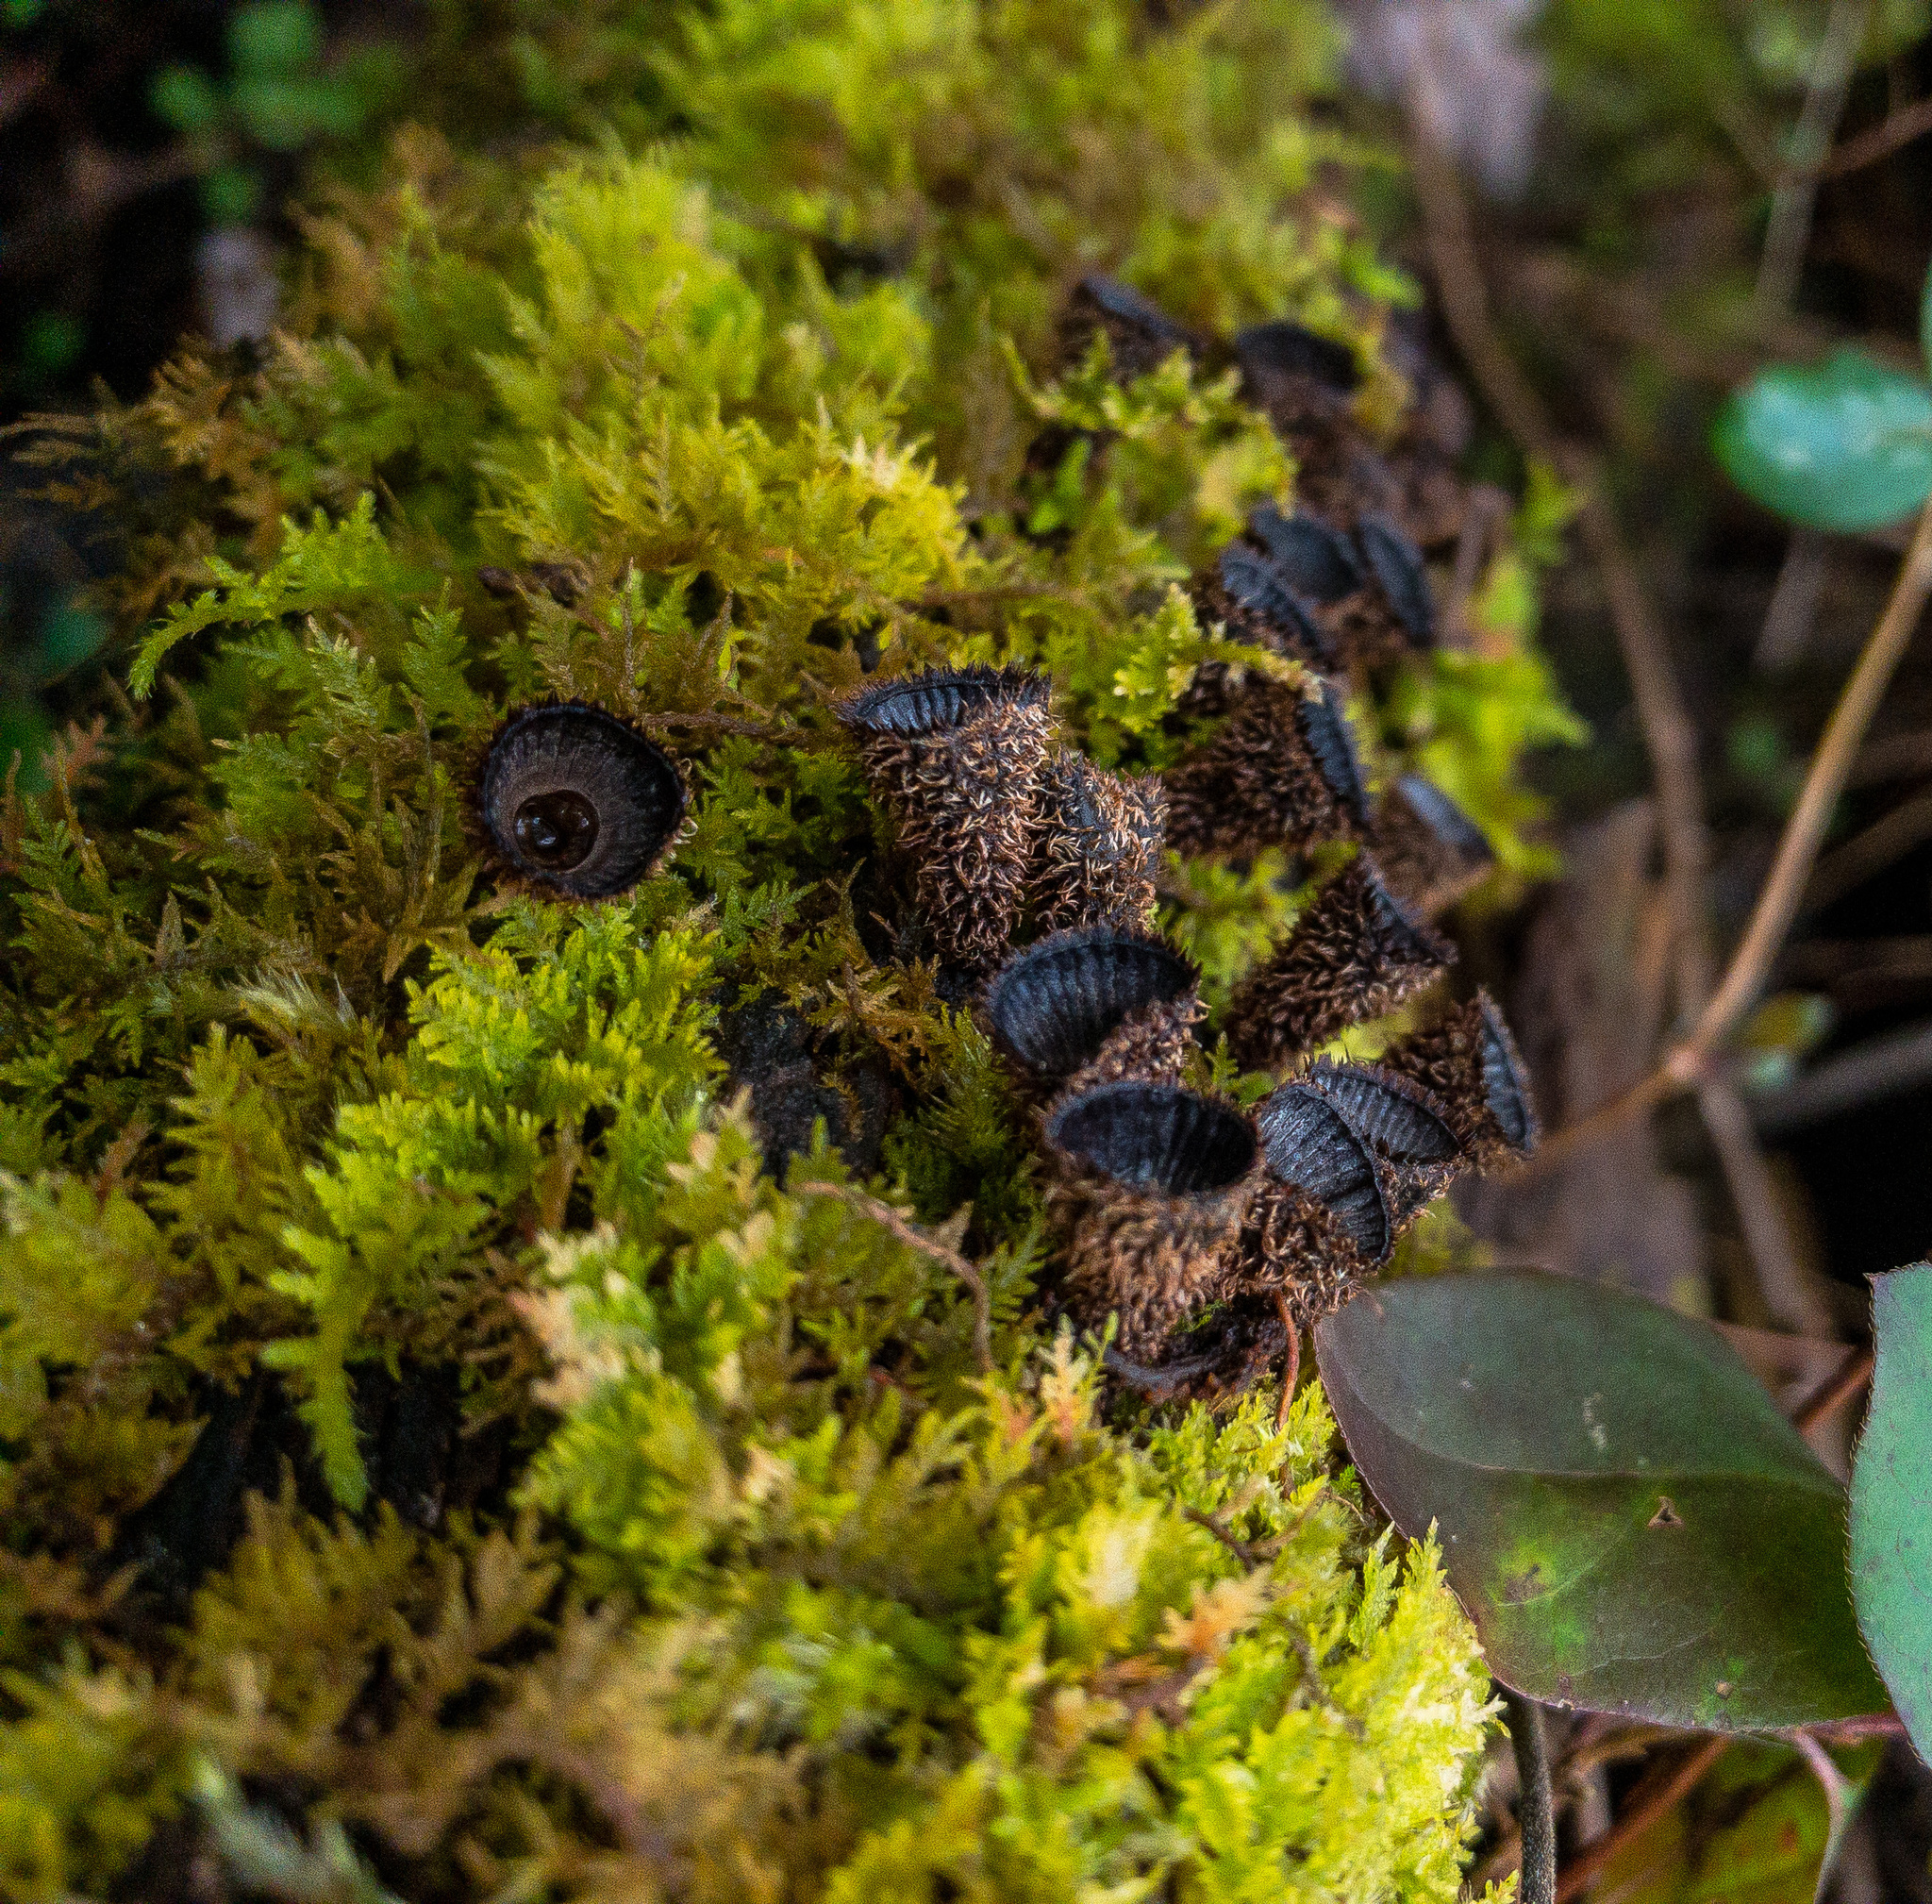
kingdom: Fungi
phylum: Basidiomycota
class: Agaricomycetes
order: Agaricales
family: Agaricaceae
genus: Cyathus
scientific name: Cyathus striatus
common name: Fluted bird's nest
